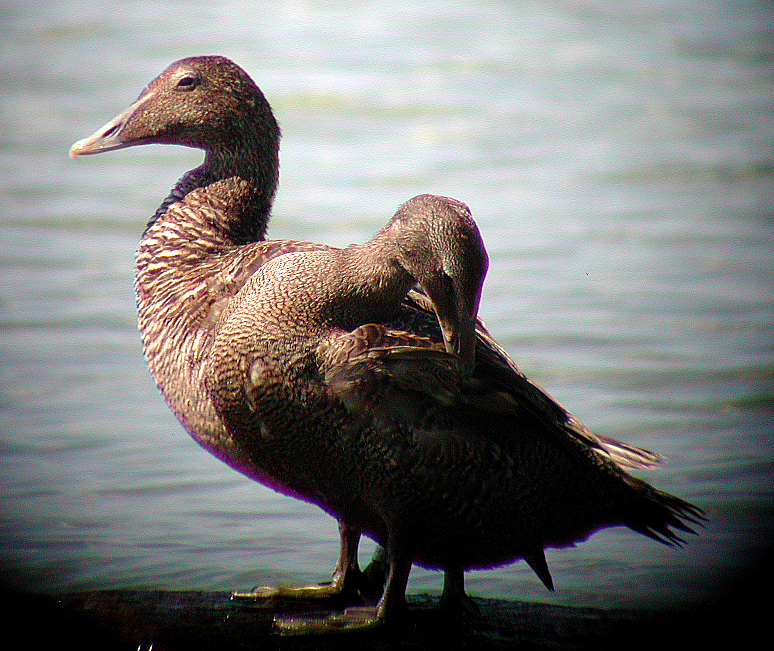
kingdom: Animalia
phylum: Chordata
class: Aves
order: Anseriformes
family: Anatidae
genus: Somateria
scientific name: Somateria mollissima
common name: Common eider
